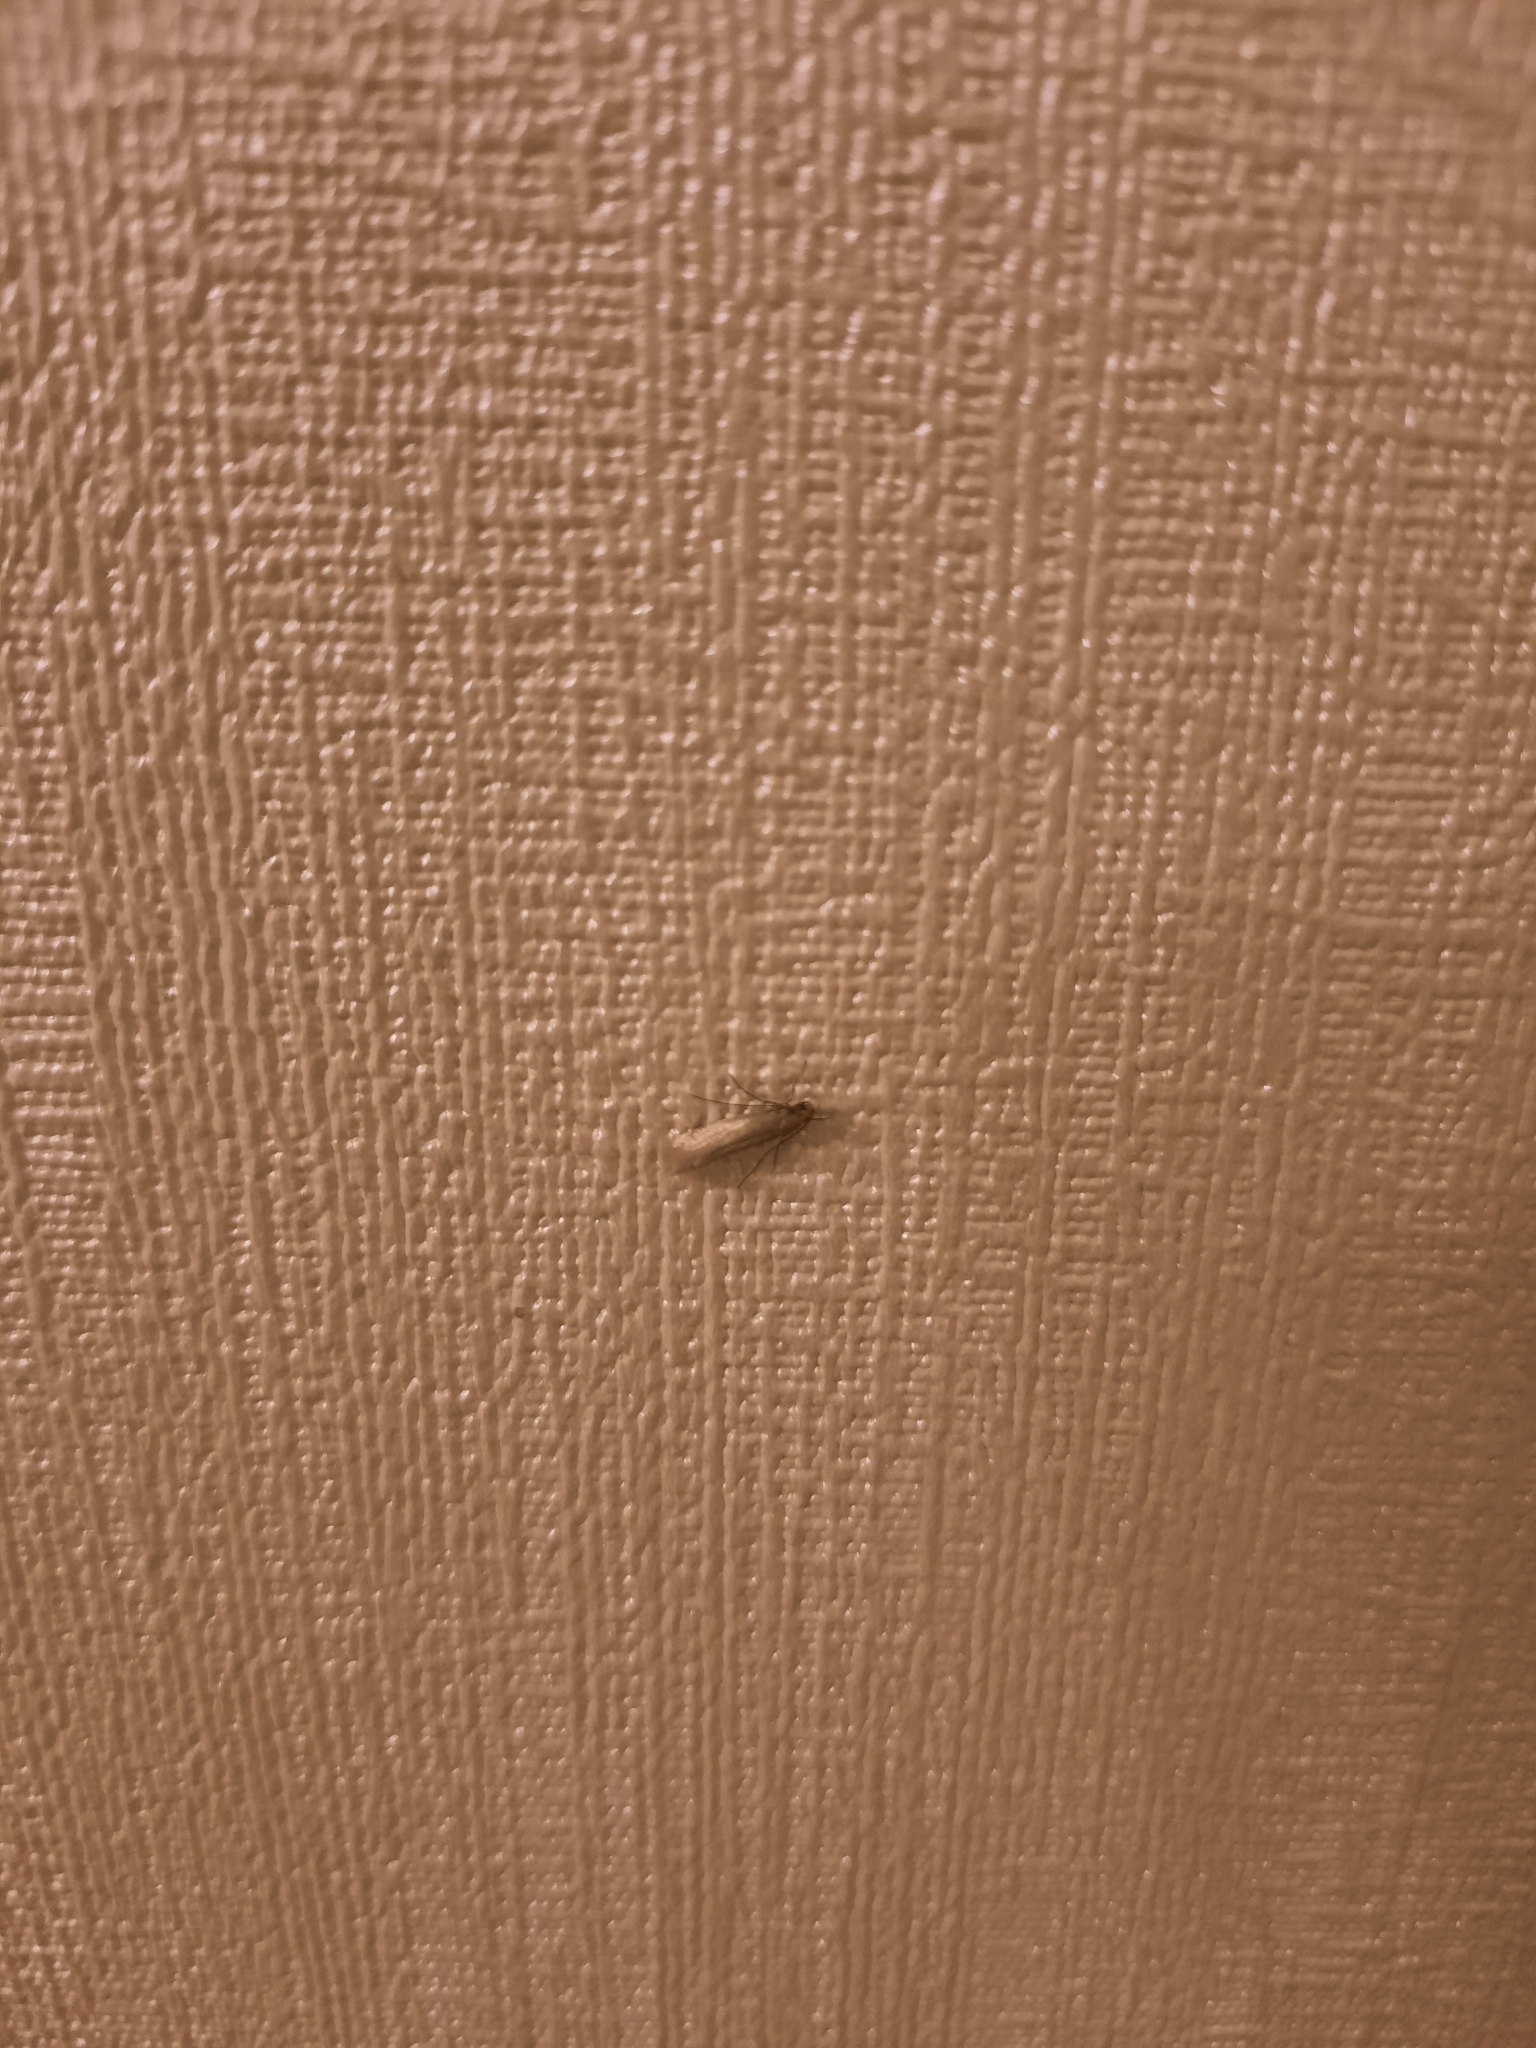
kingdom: Animalia
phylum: Arthropoda
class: Insecta
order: Lepidoptera
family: Tineidae
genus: Tineola
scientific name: Tineola bisselliella
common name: Webbing clothes moth
